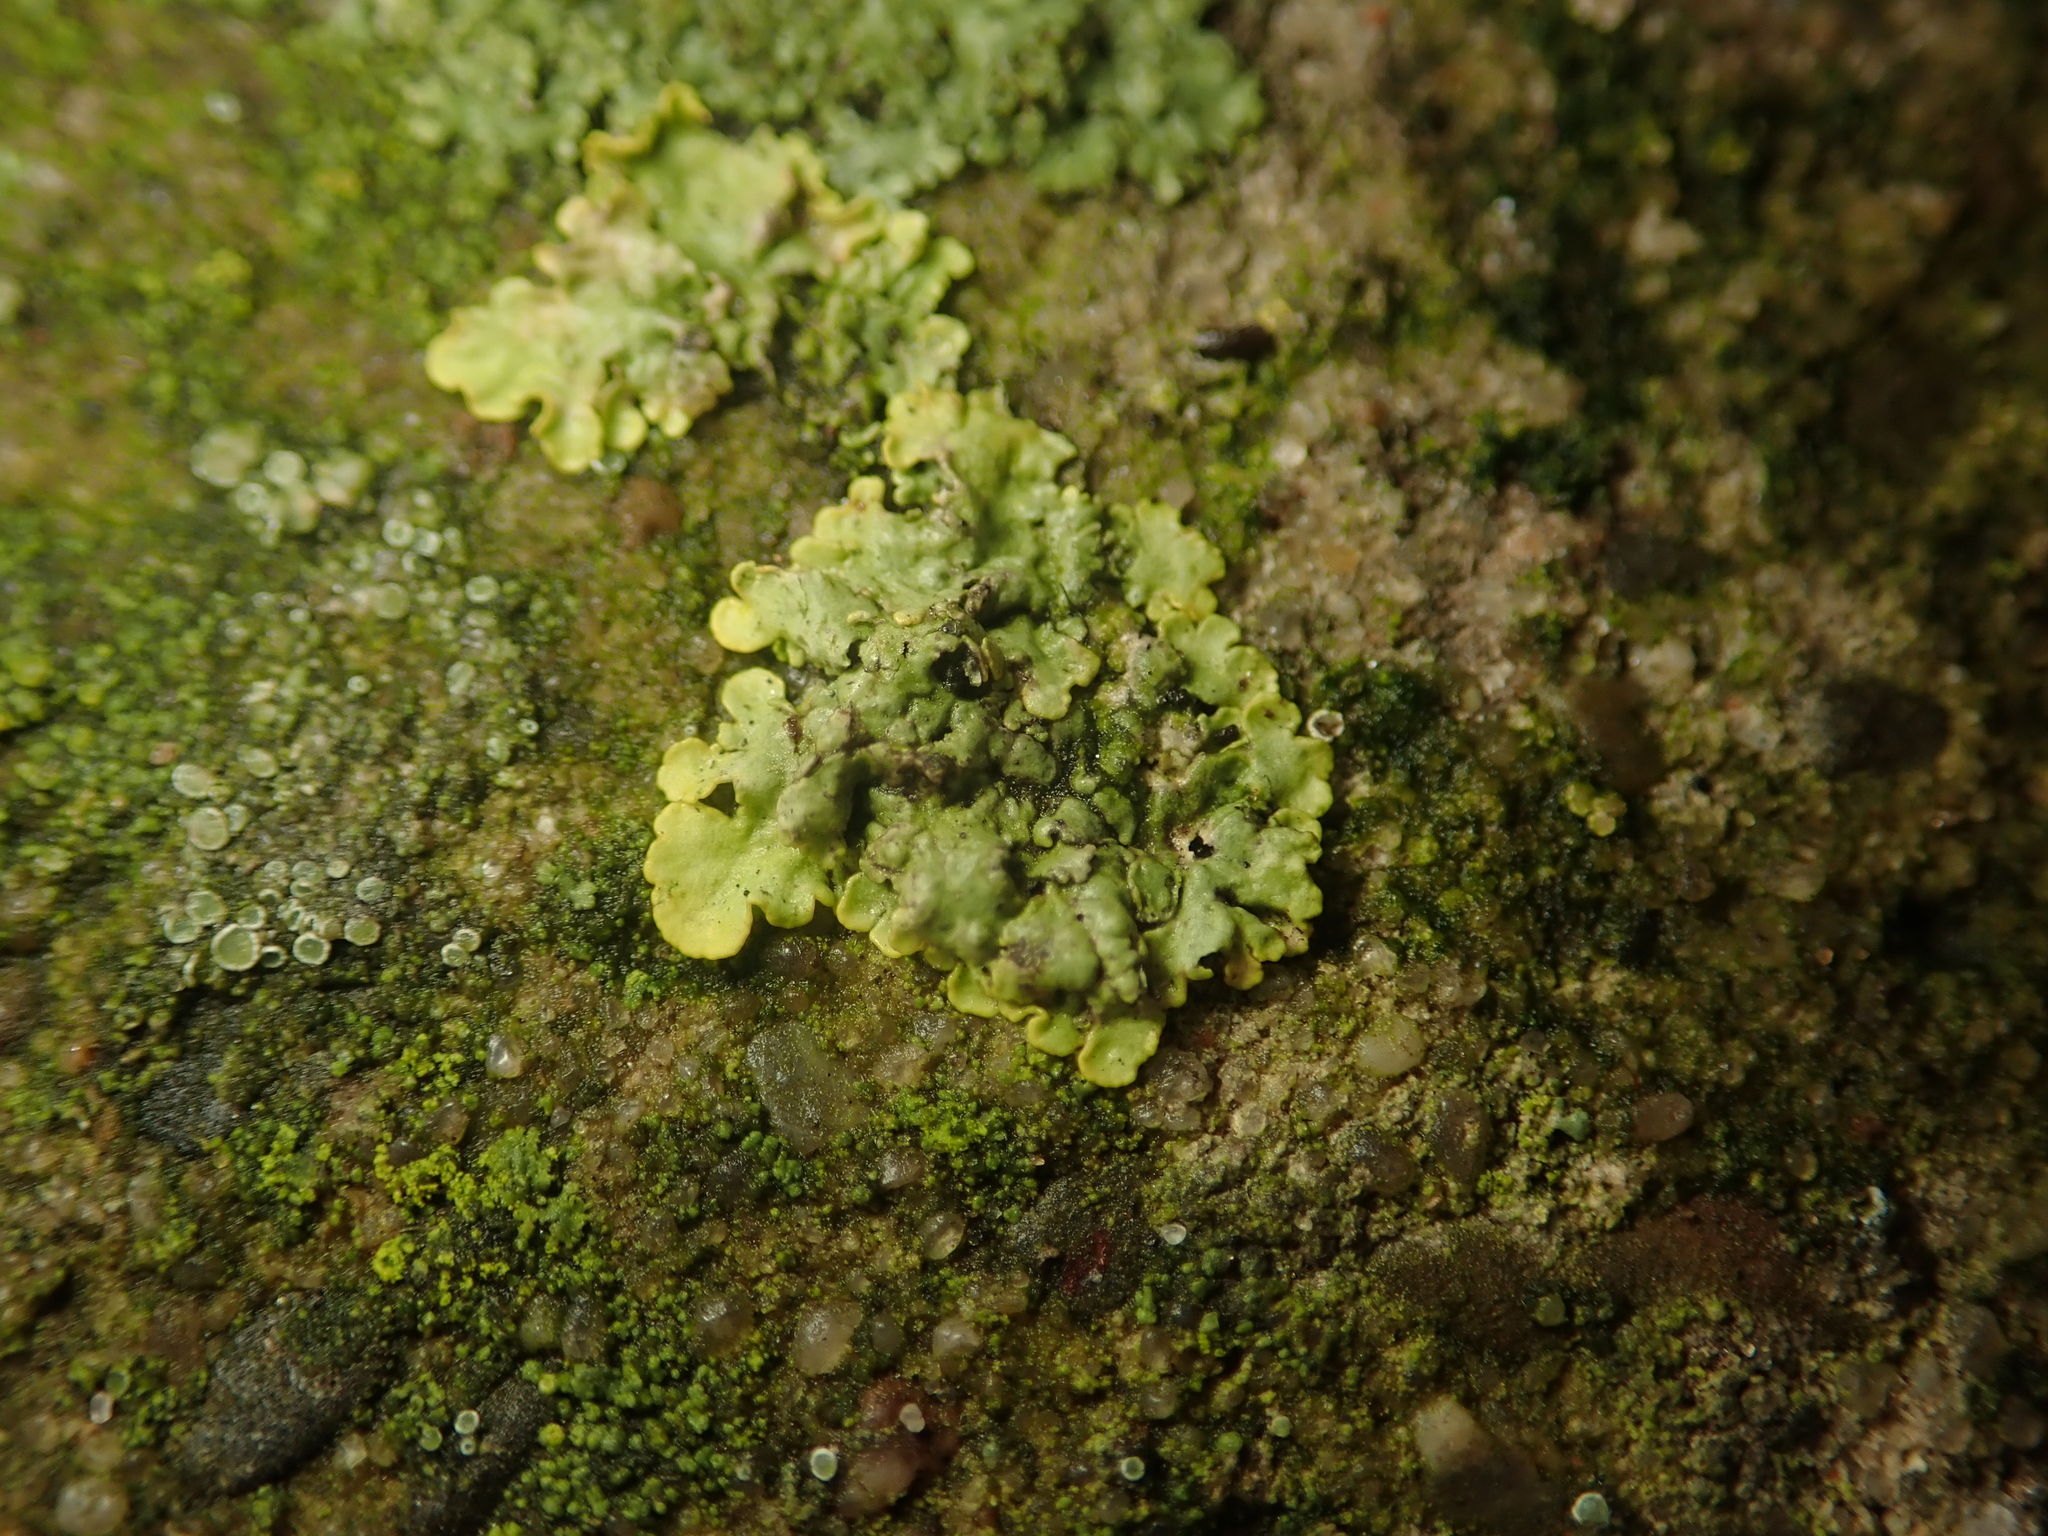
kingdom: Fungi
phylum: Ascomycota
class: Lecanoromycetes
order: Teloschistales
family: Teloschistaceae
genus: Xanthoria
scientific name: Xanthoria parietina
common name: Common orange lichen
